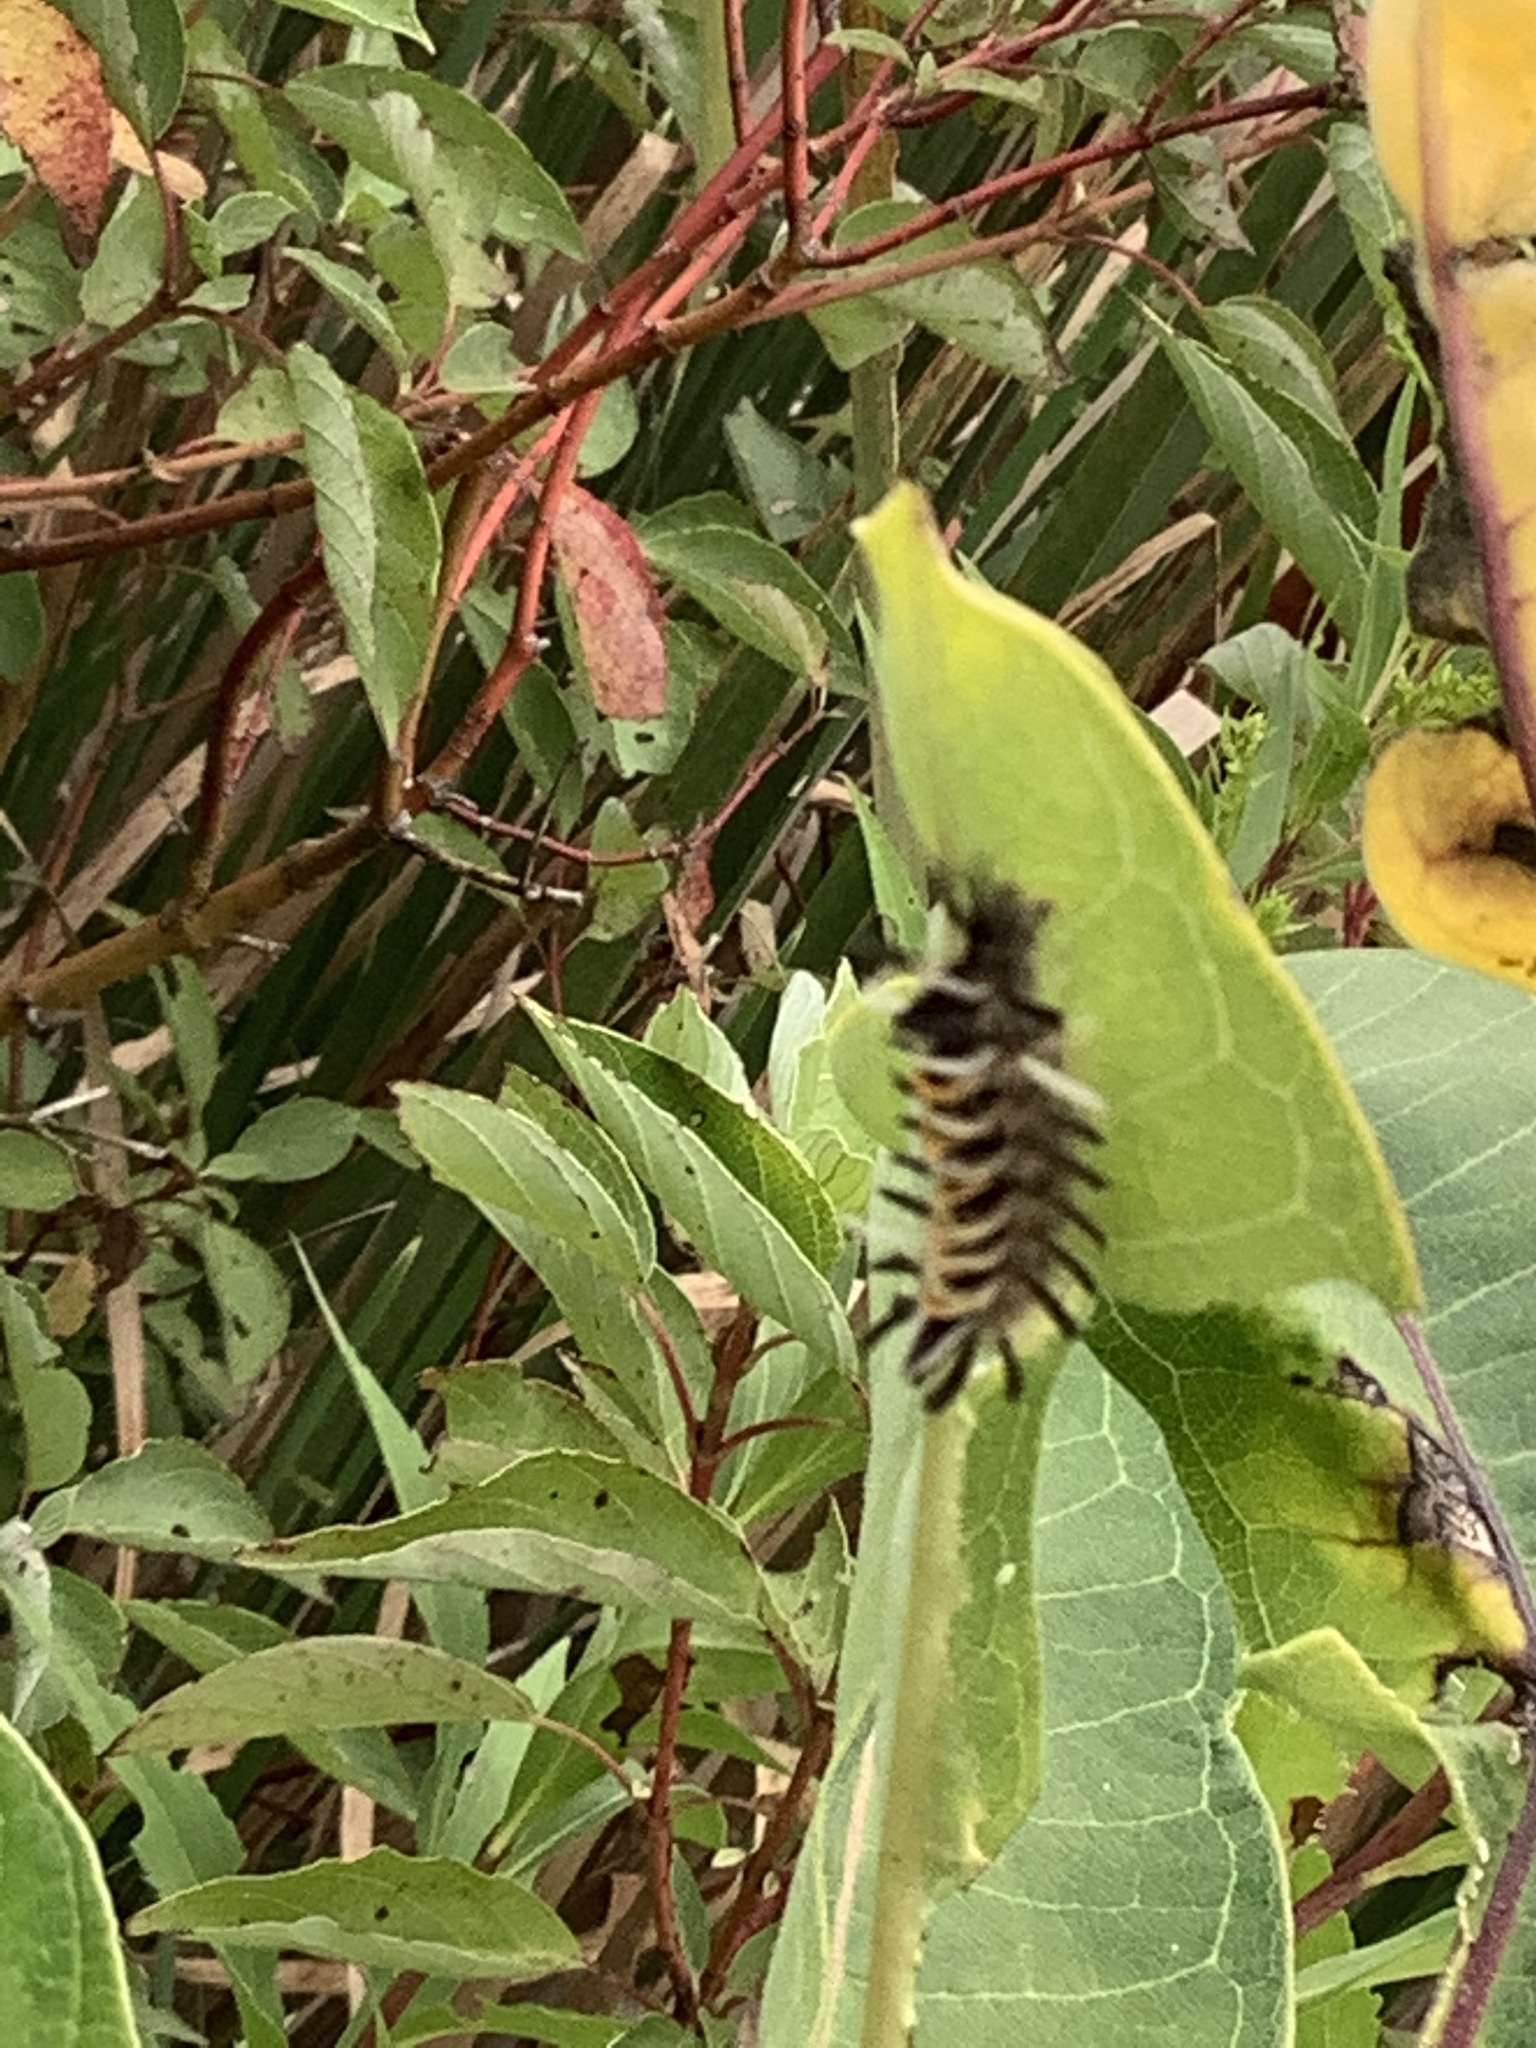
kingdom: Animalia
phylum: Arthropoda
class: Insecta
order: Lepidoptera
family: Erebidae
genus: Euchaetes
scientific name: Euchaetes egle
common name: Milkweed tussock moth
